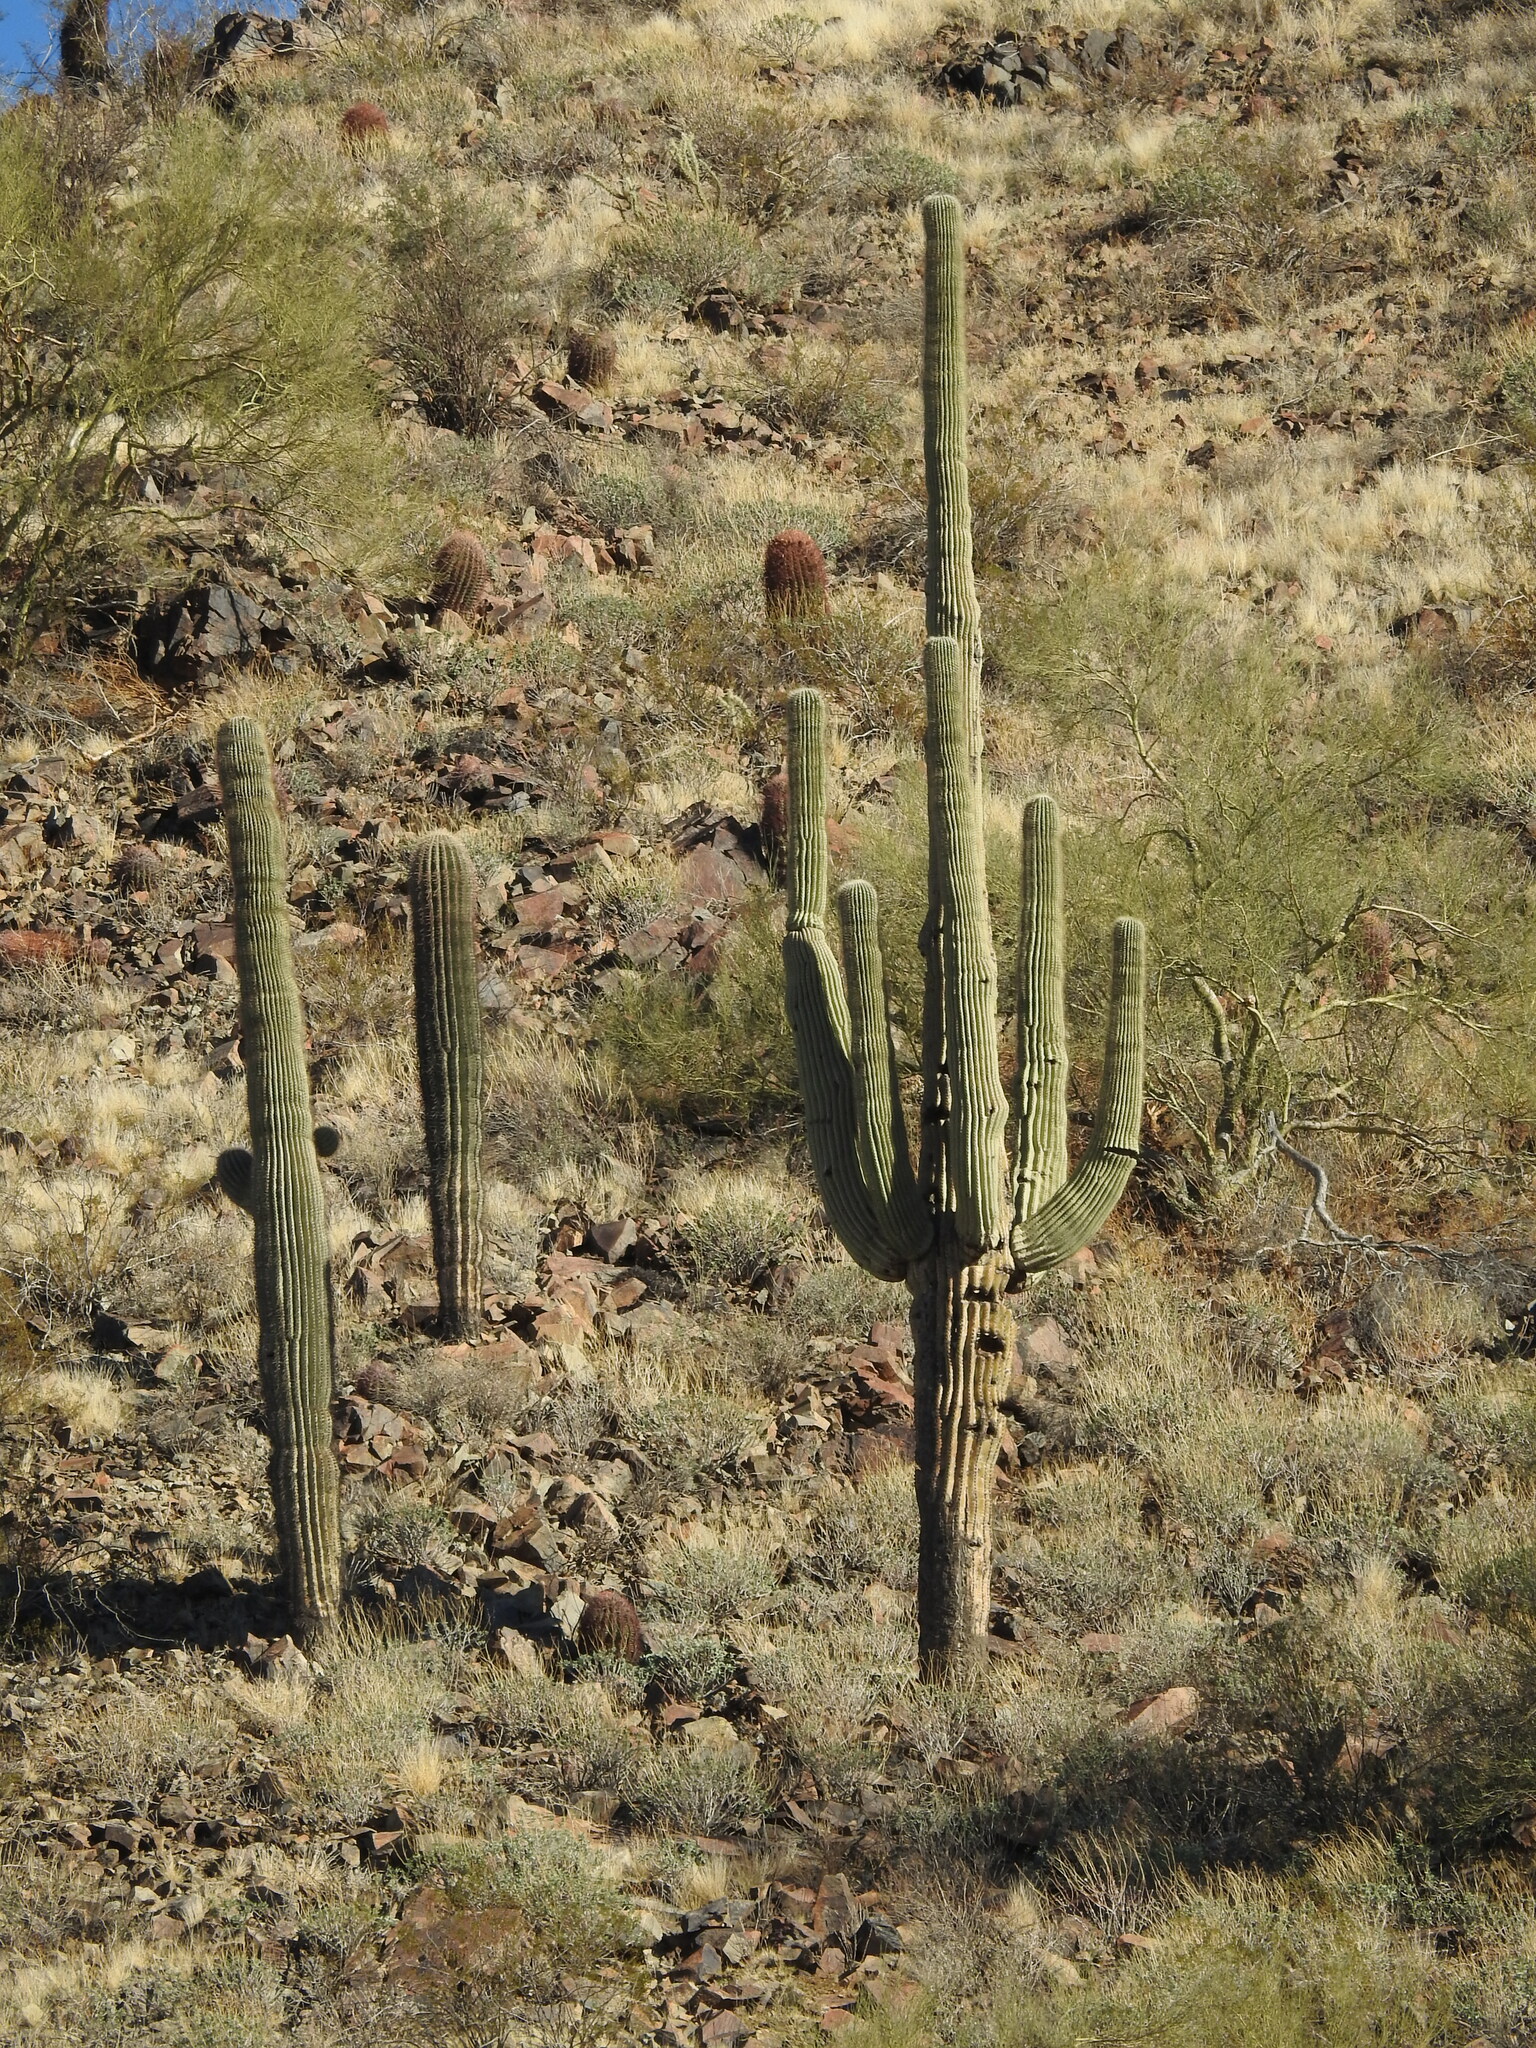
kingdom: Plantae
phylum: Tracheophyta
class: Magnoliopsida
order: Caryophyllales
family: Cactaceae
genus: Carnegiea
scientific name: Carnegiea gigantea
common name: Saguaro
